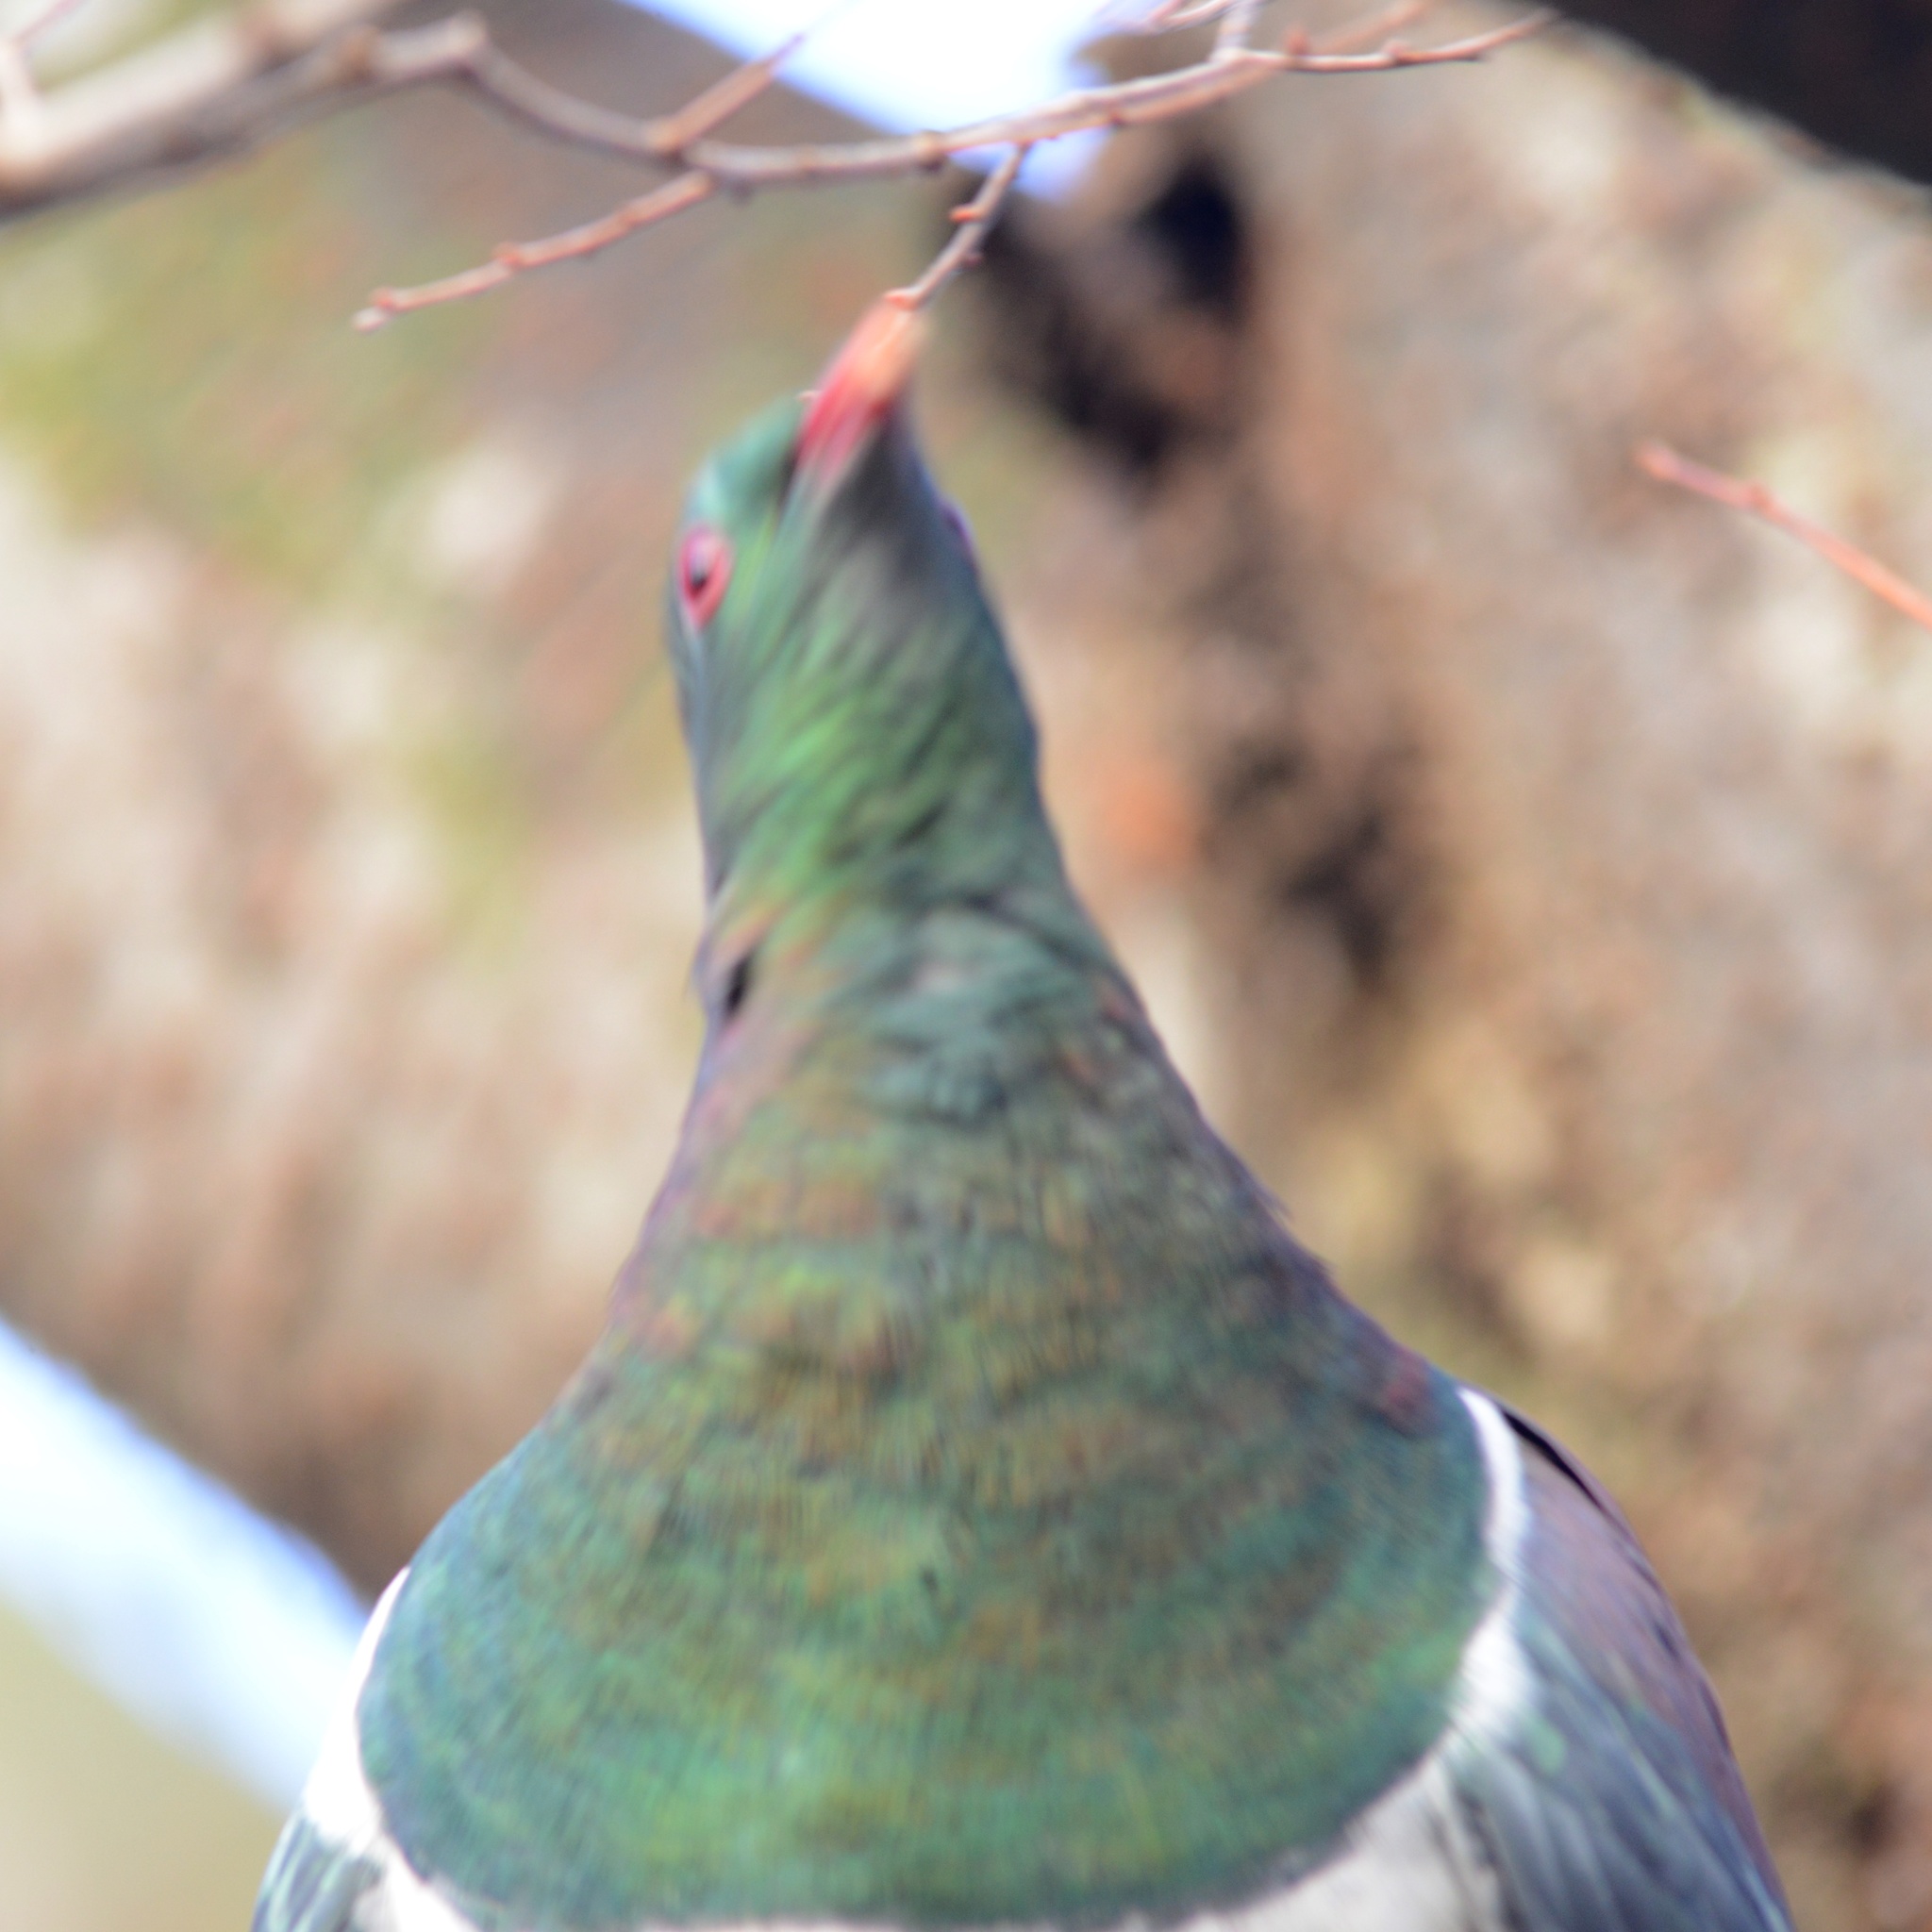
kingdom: Animalia
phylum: Chordata
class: Aves
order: Columbiformes
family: Columbidae
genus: Hemiphaga
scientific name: Hemiphaga novaeseelandiae
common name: New zealand pigeon
